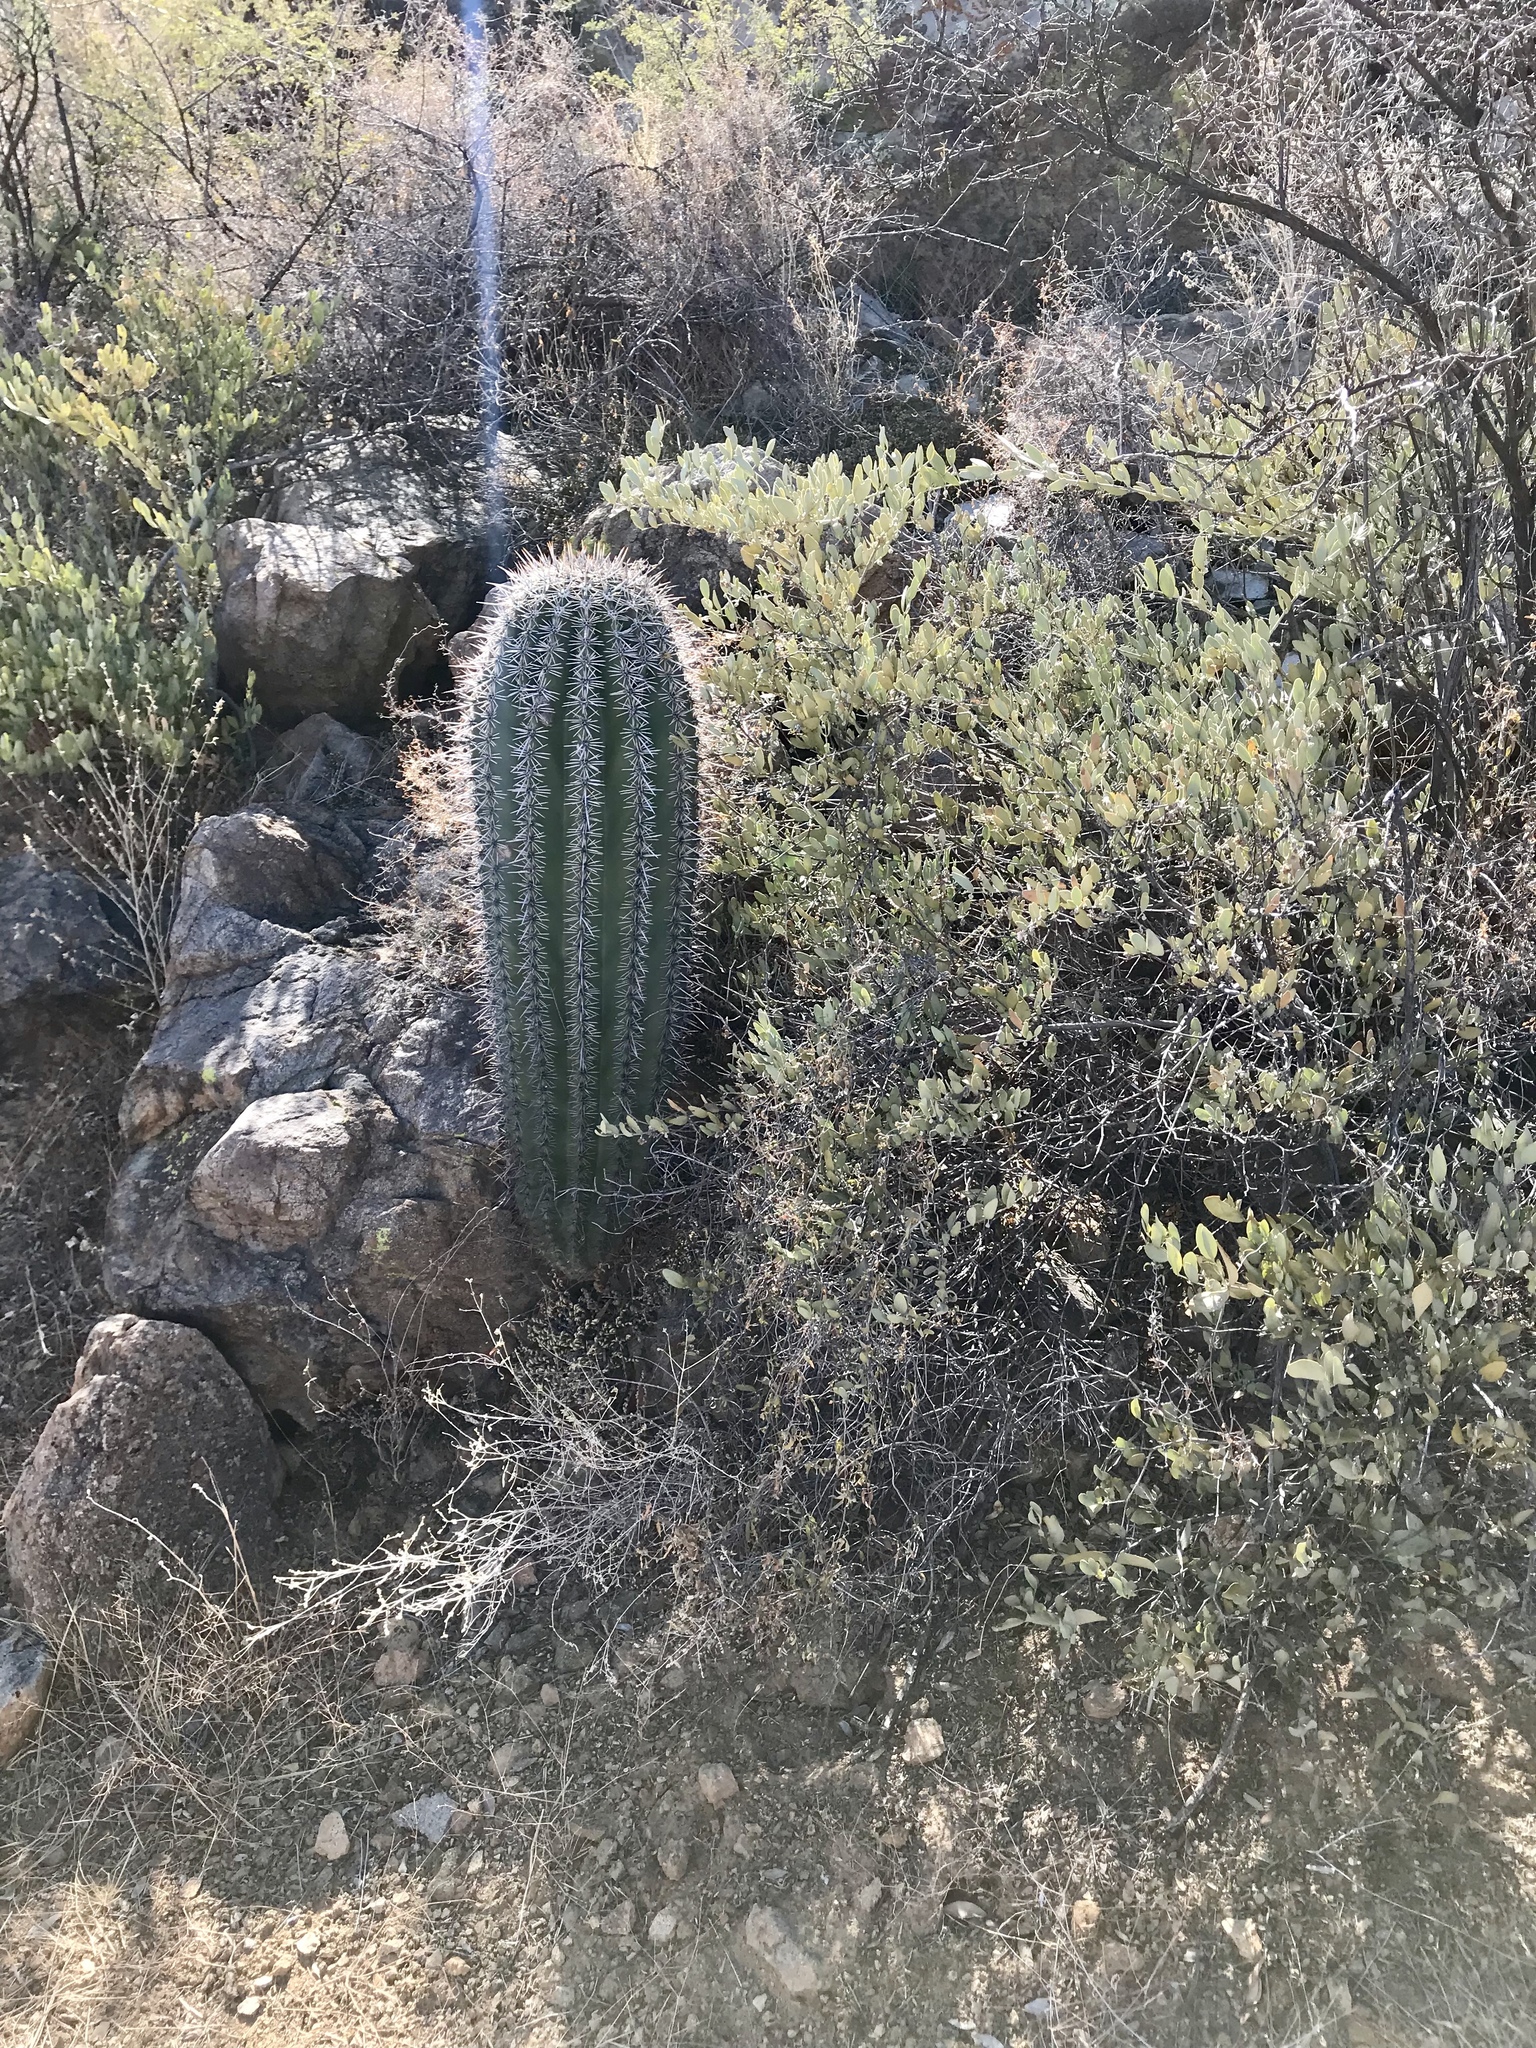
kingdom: Plantae
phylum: Tracheophyta
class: Magnoliopsida
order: Caryophyllales
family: Cactaceae
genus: Carnegiea
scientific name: Carnegiea gigantea
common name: Saguaro
